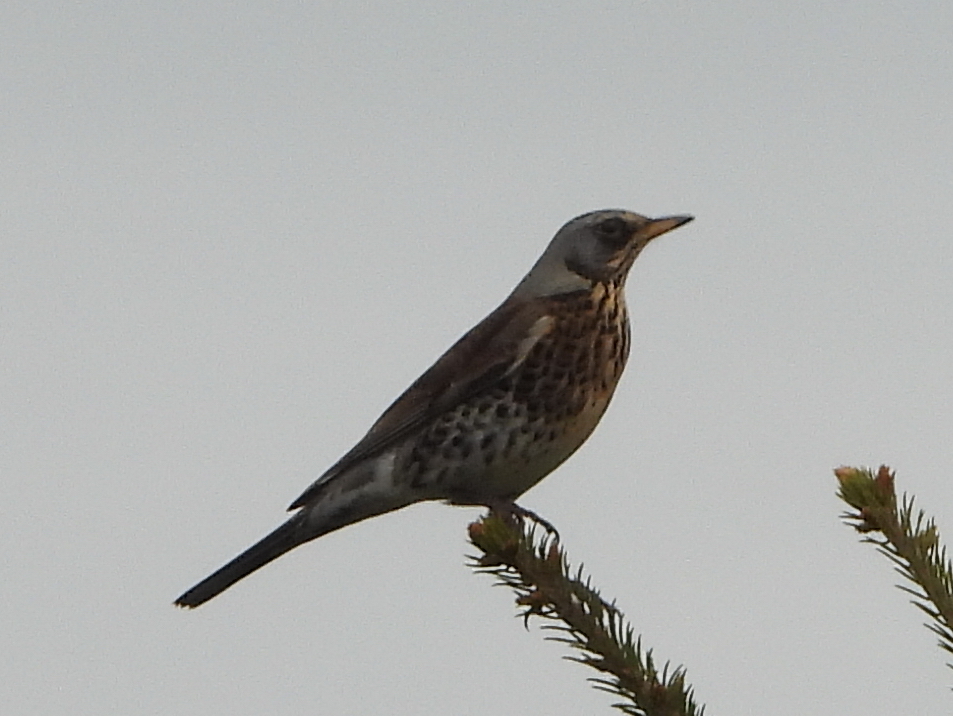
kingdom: Animalia
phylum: Chordata
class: Aves
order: Passeriformes
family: Turdidae
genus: Turdus
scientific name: Turdus pilaris
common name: Fieldfare
